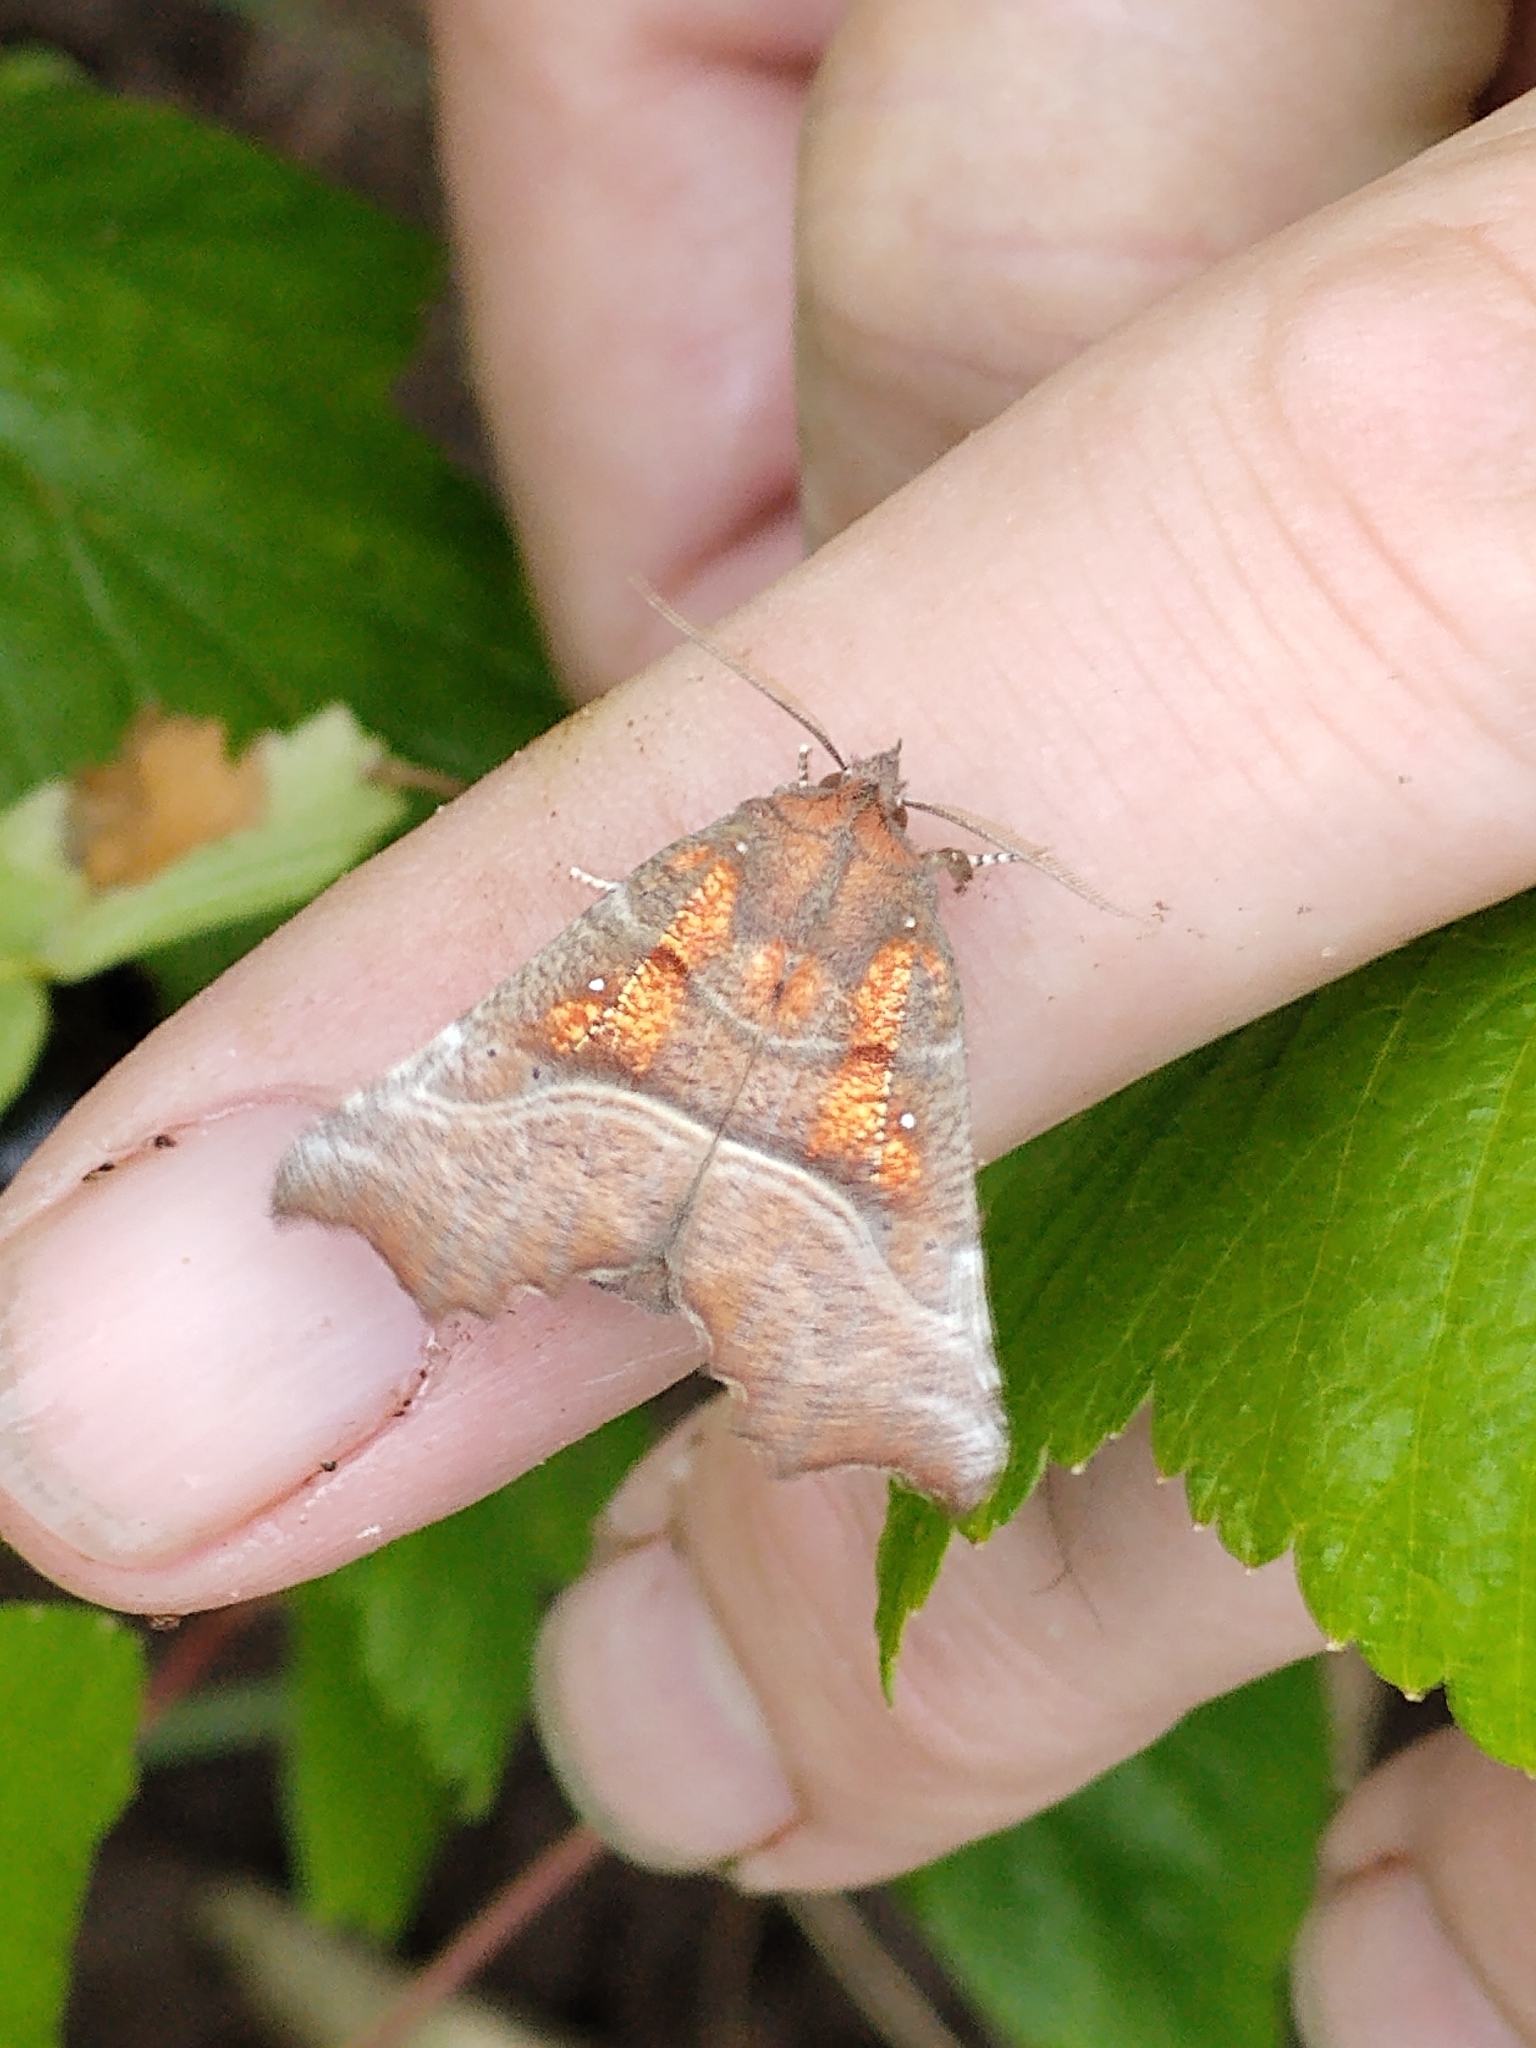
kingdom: Animalia
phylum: Arthropoda
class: Insecta
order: Lepidoptera
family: Erebidae
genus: Scoliopteryx
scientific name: Scoliopteryx libatrix
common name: Herald
